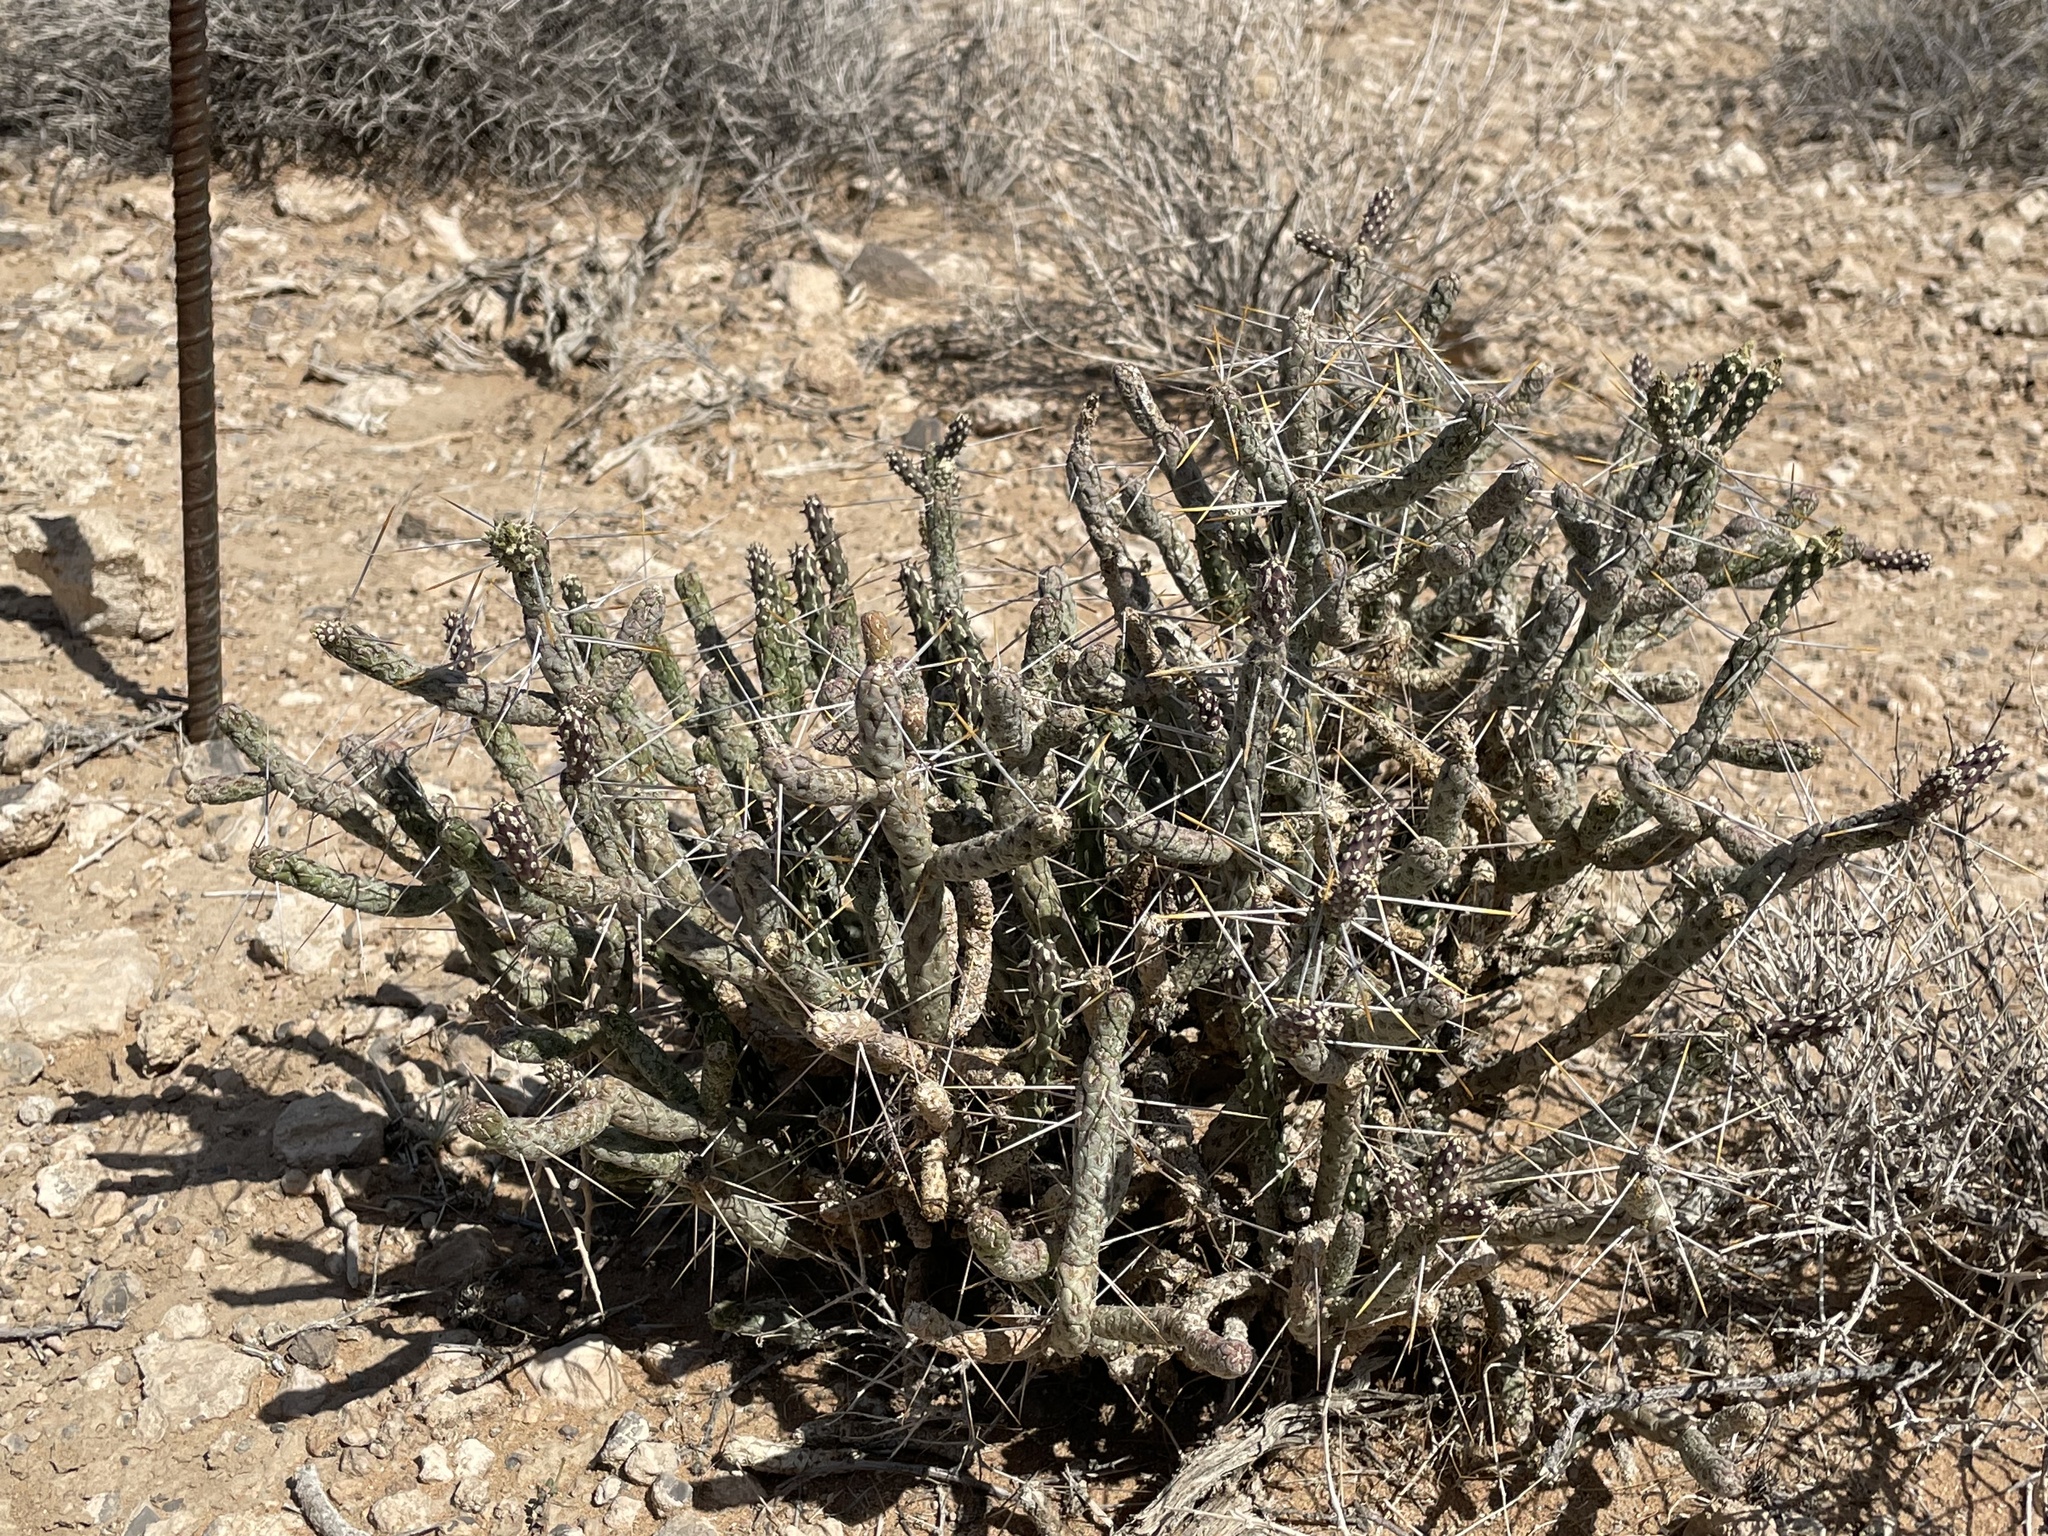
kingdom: Plantae
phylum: Tracheophyta
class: Magnoliopsida
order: Caryophyllales
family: Cactaceae
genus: Cylindropuntia
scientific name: Cylindropuntia ramosissima
